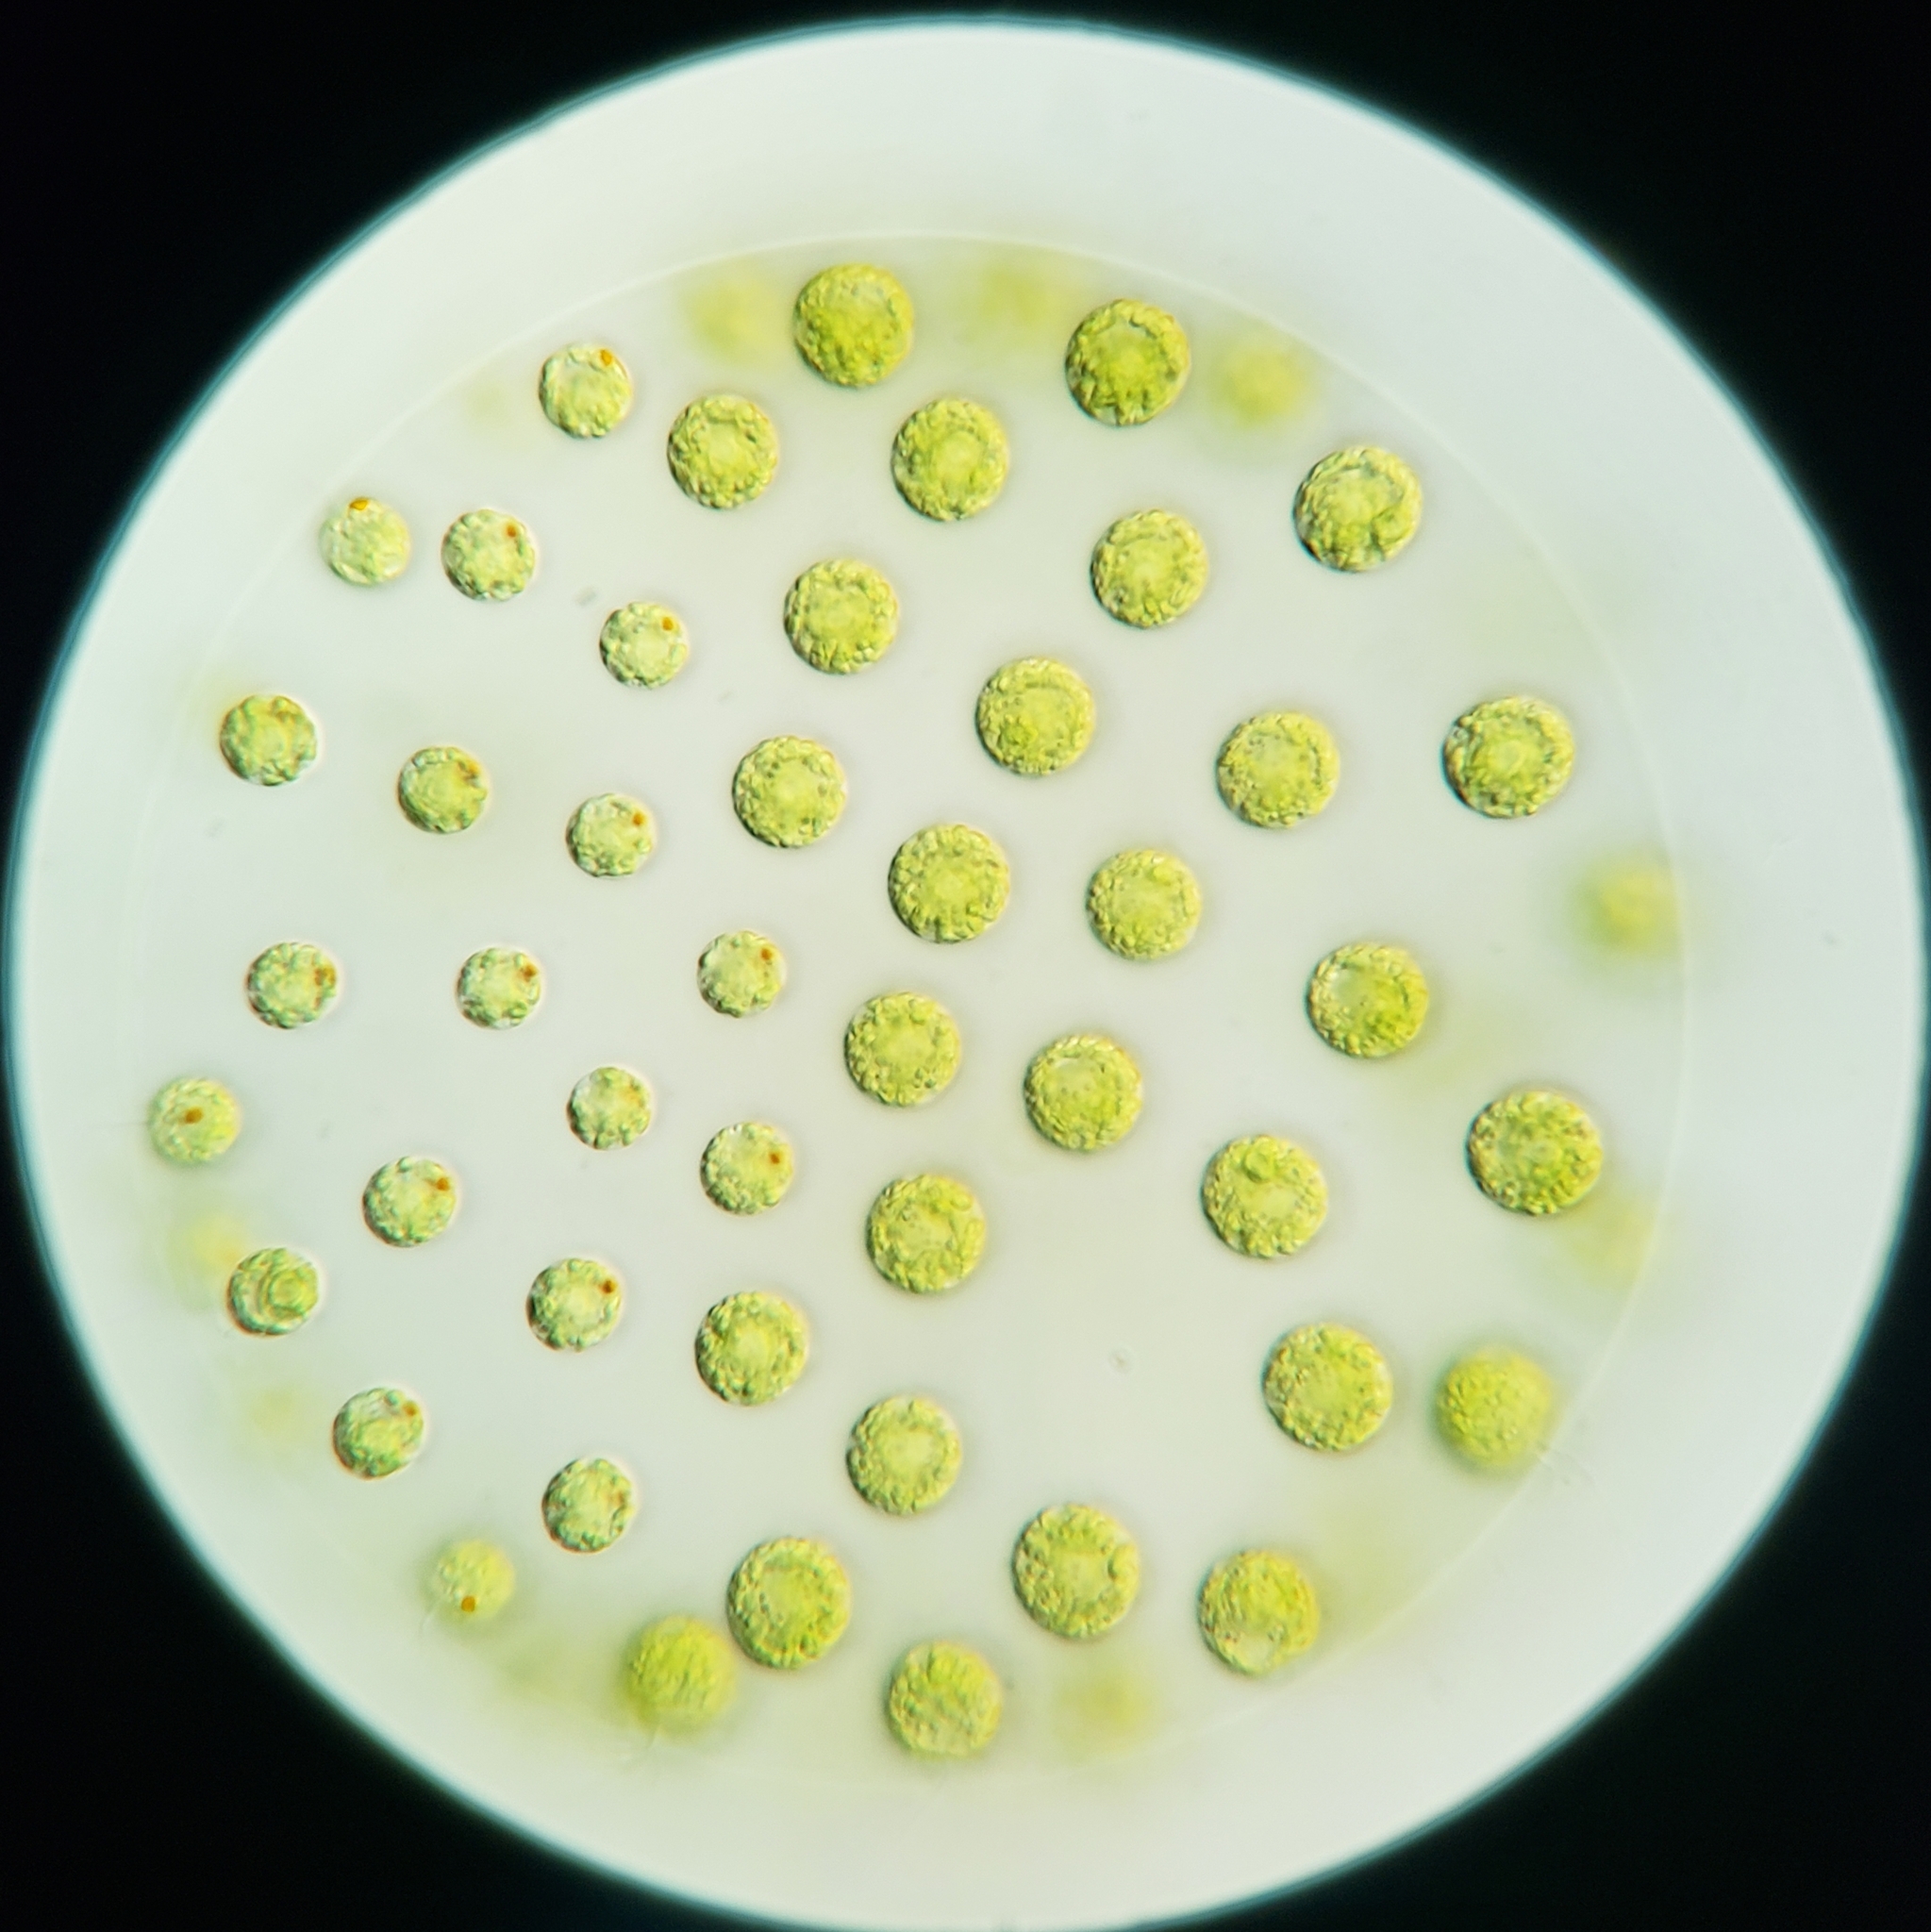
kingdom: Plantae
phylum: Chlorophyta
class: Chlorophyceae
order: Volvocales
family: Volvocaceae
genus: Pleodorina
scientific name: Pleodorina californica
